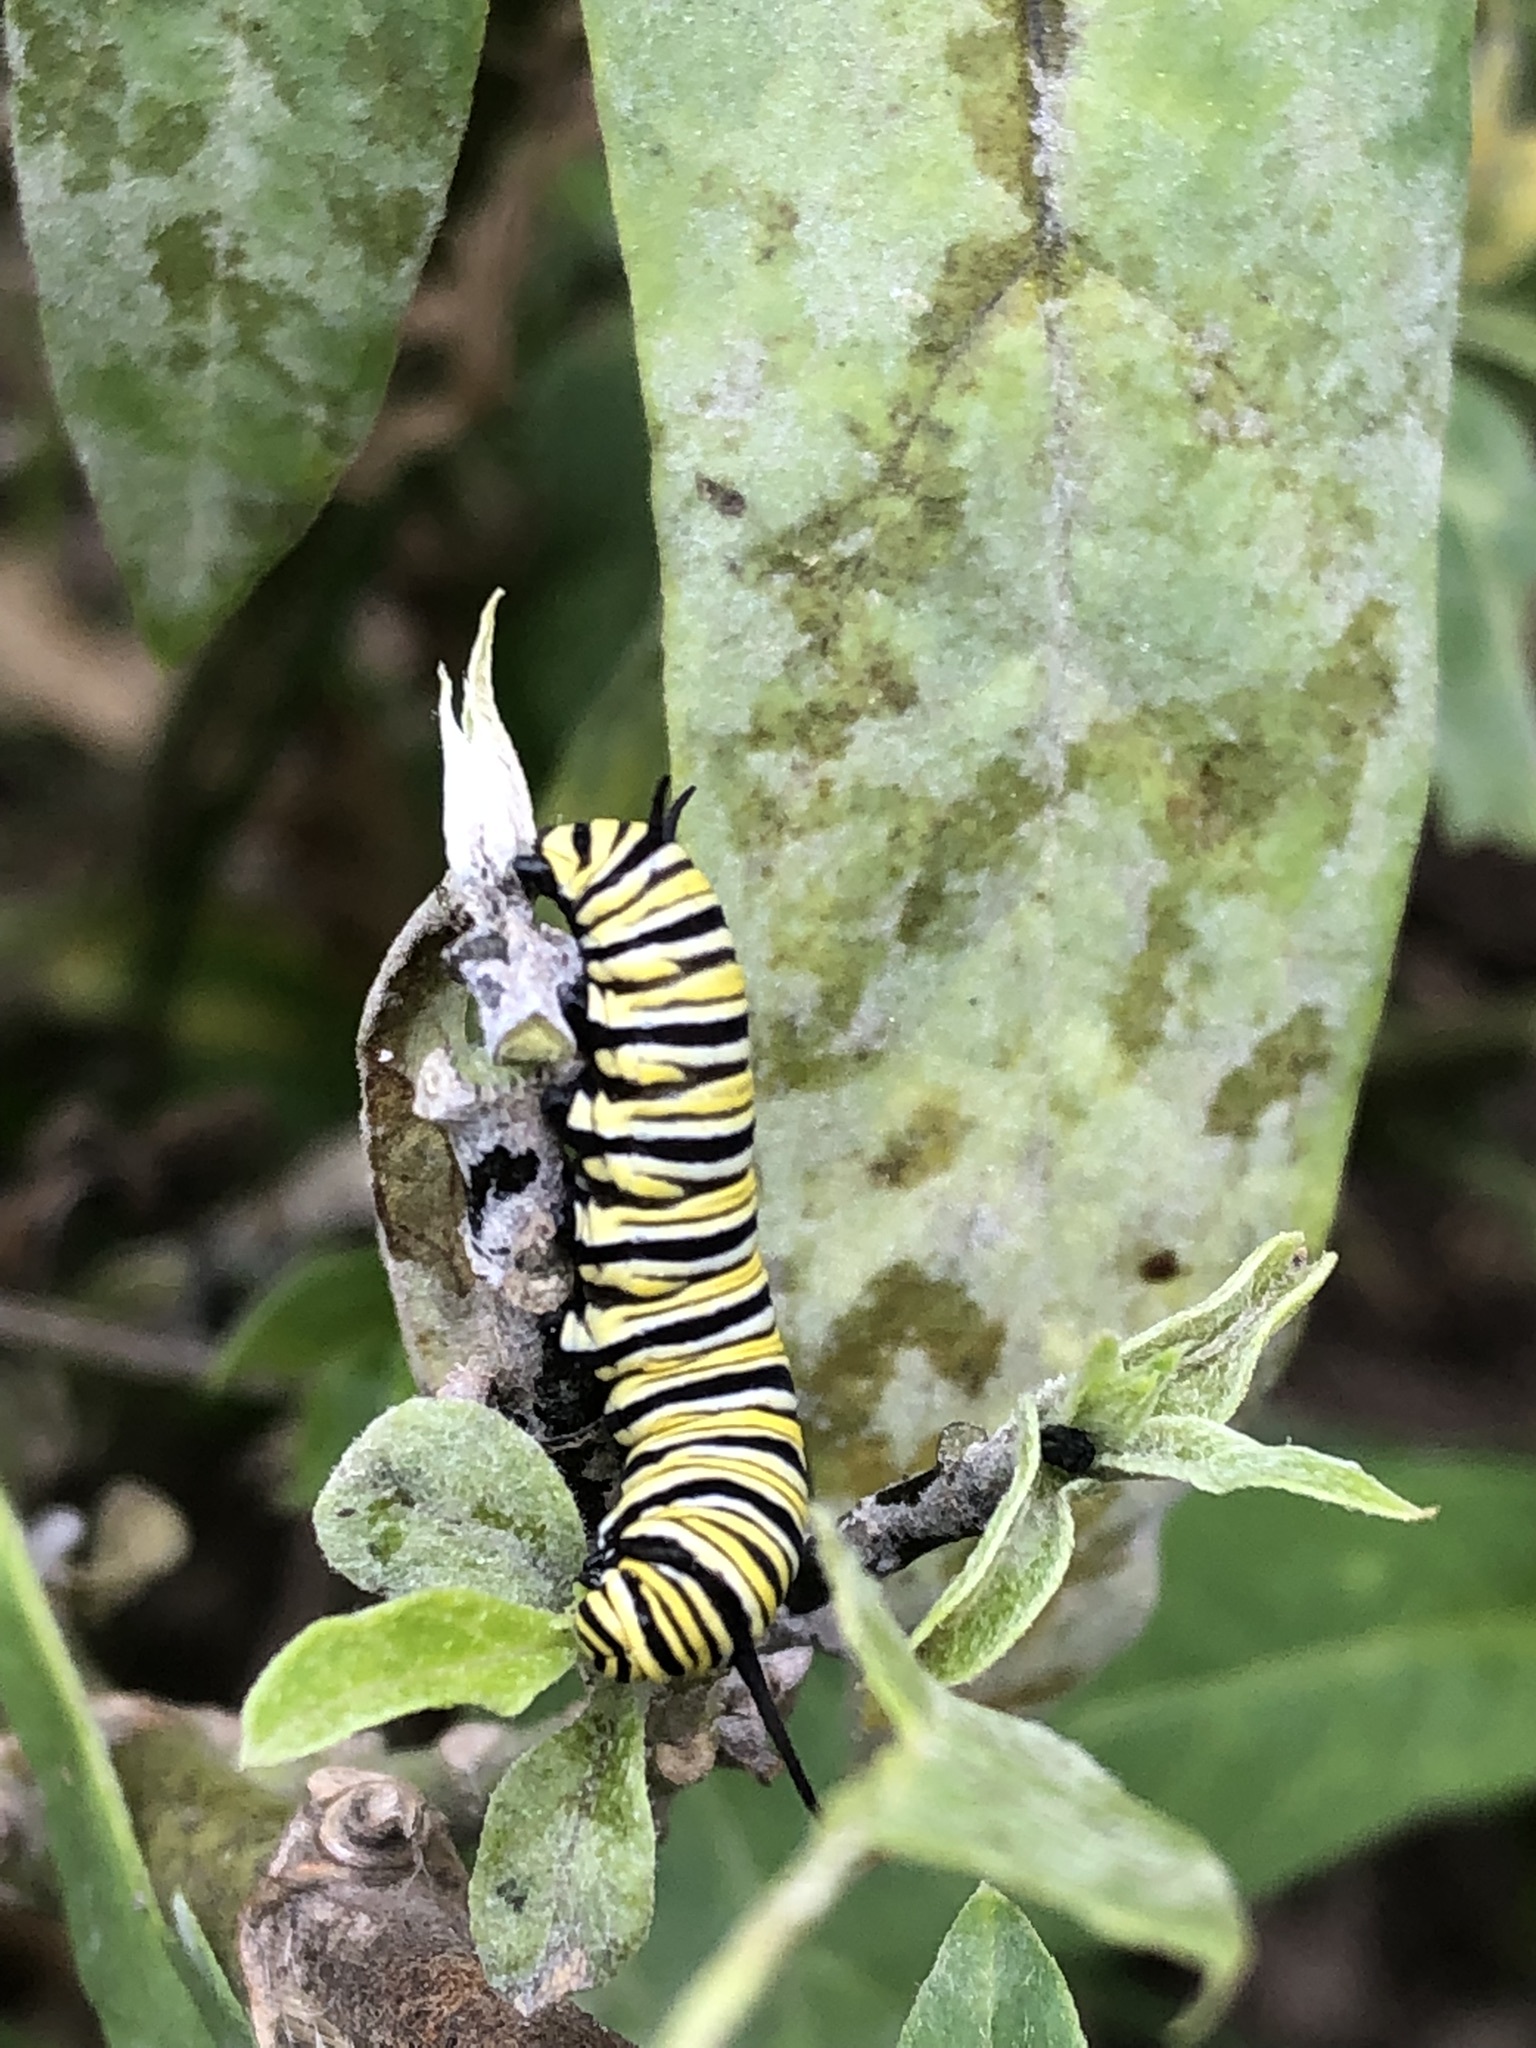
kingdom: Animalia
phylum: Arthropoda
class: Insecta
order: Lepidoptera
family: Nymphalidae
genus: Danaus
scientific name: Danaus plexippus
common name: Monarch
